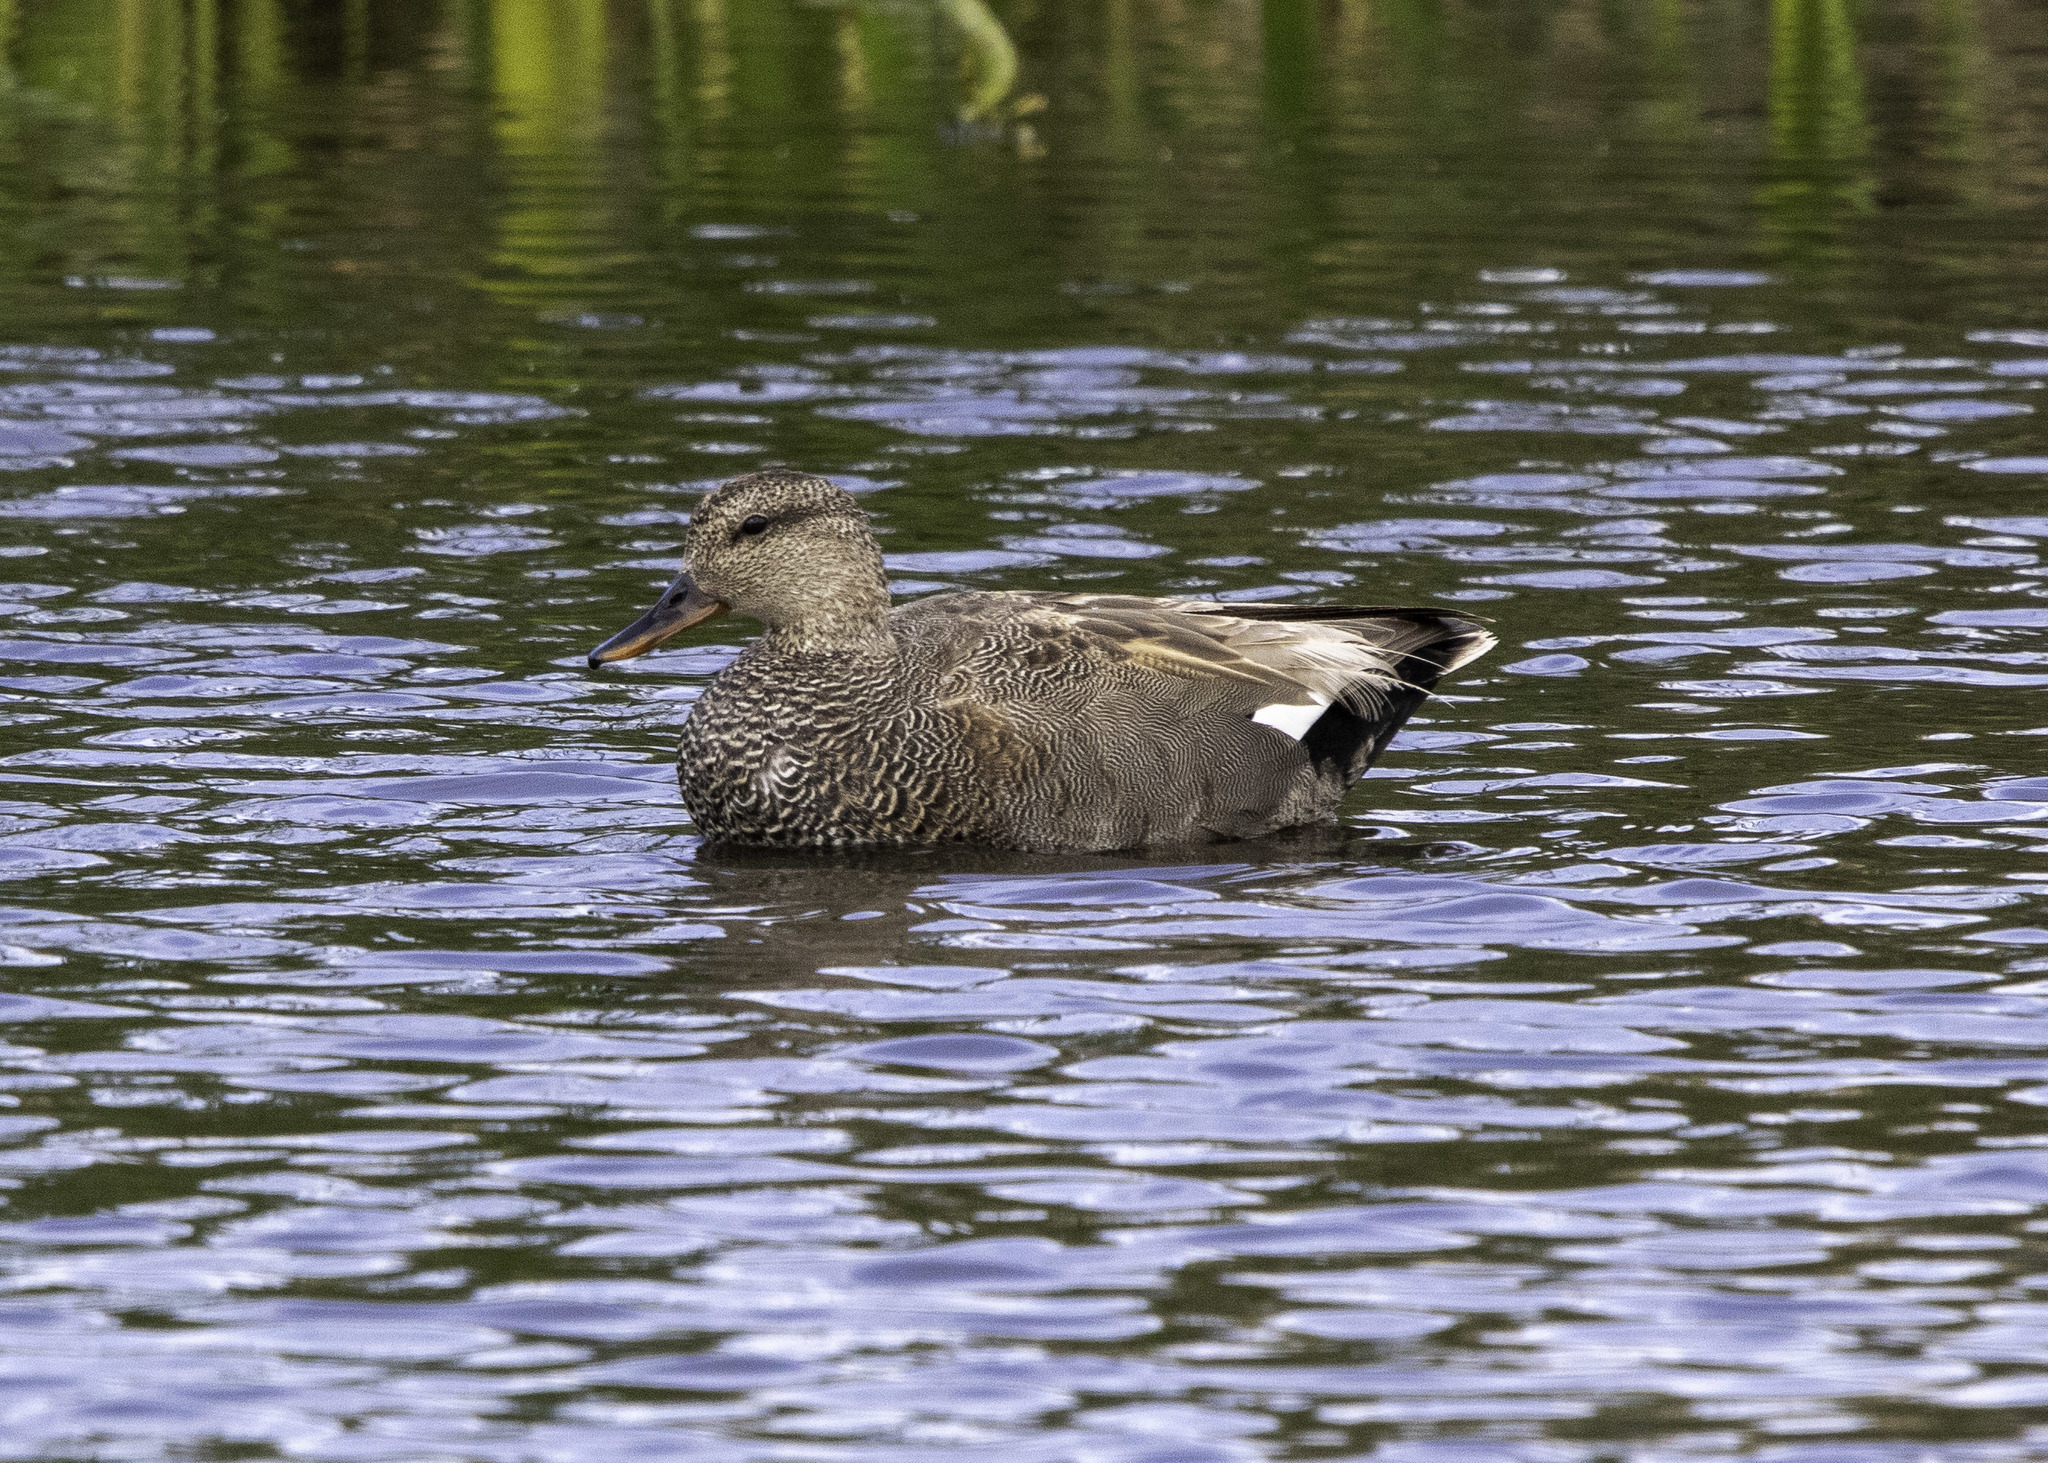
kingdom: Animalia
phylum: Chordata
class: Aves
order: Anseriformes
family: Anatidae
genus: Mareca
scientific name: Mareca strepera
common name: Gadwall
